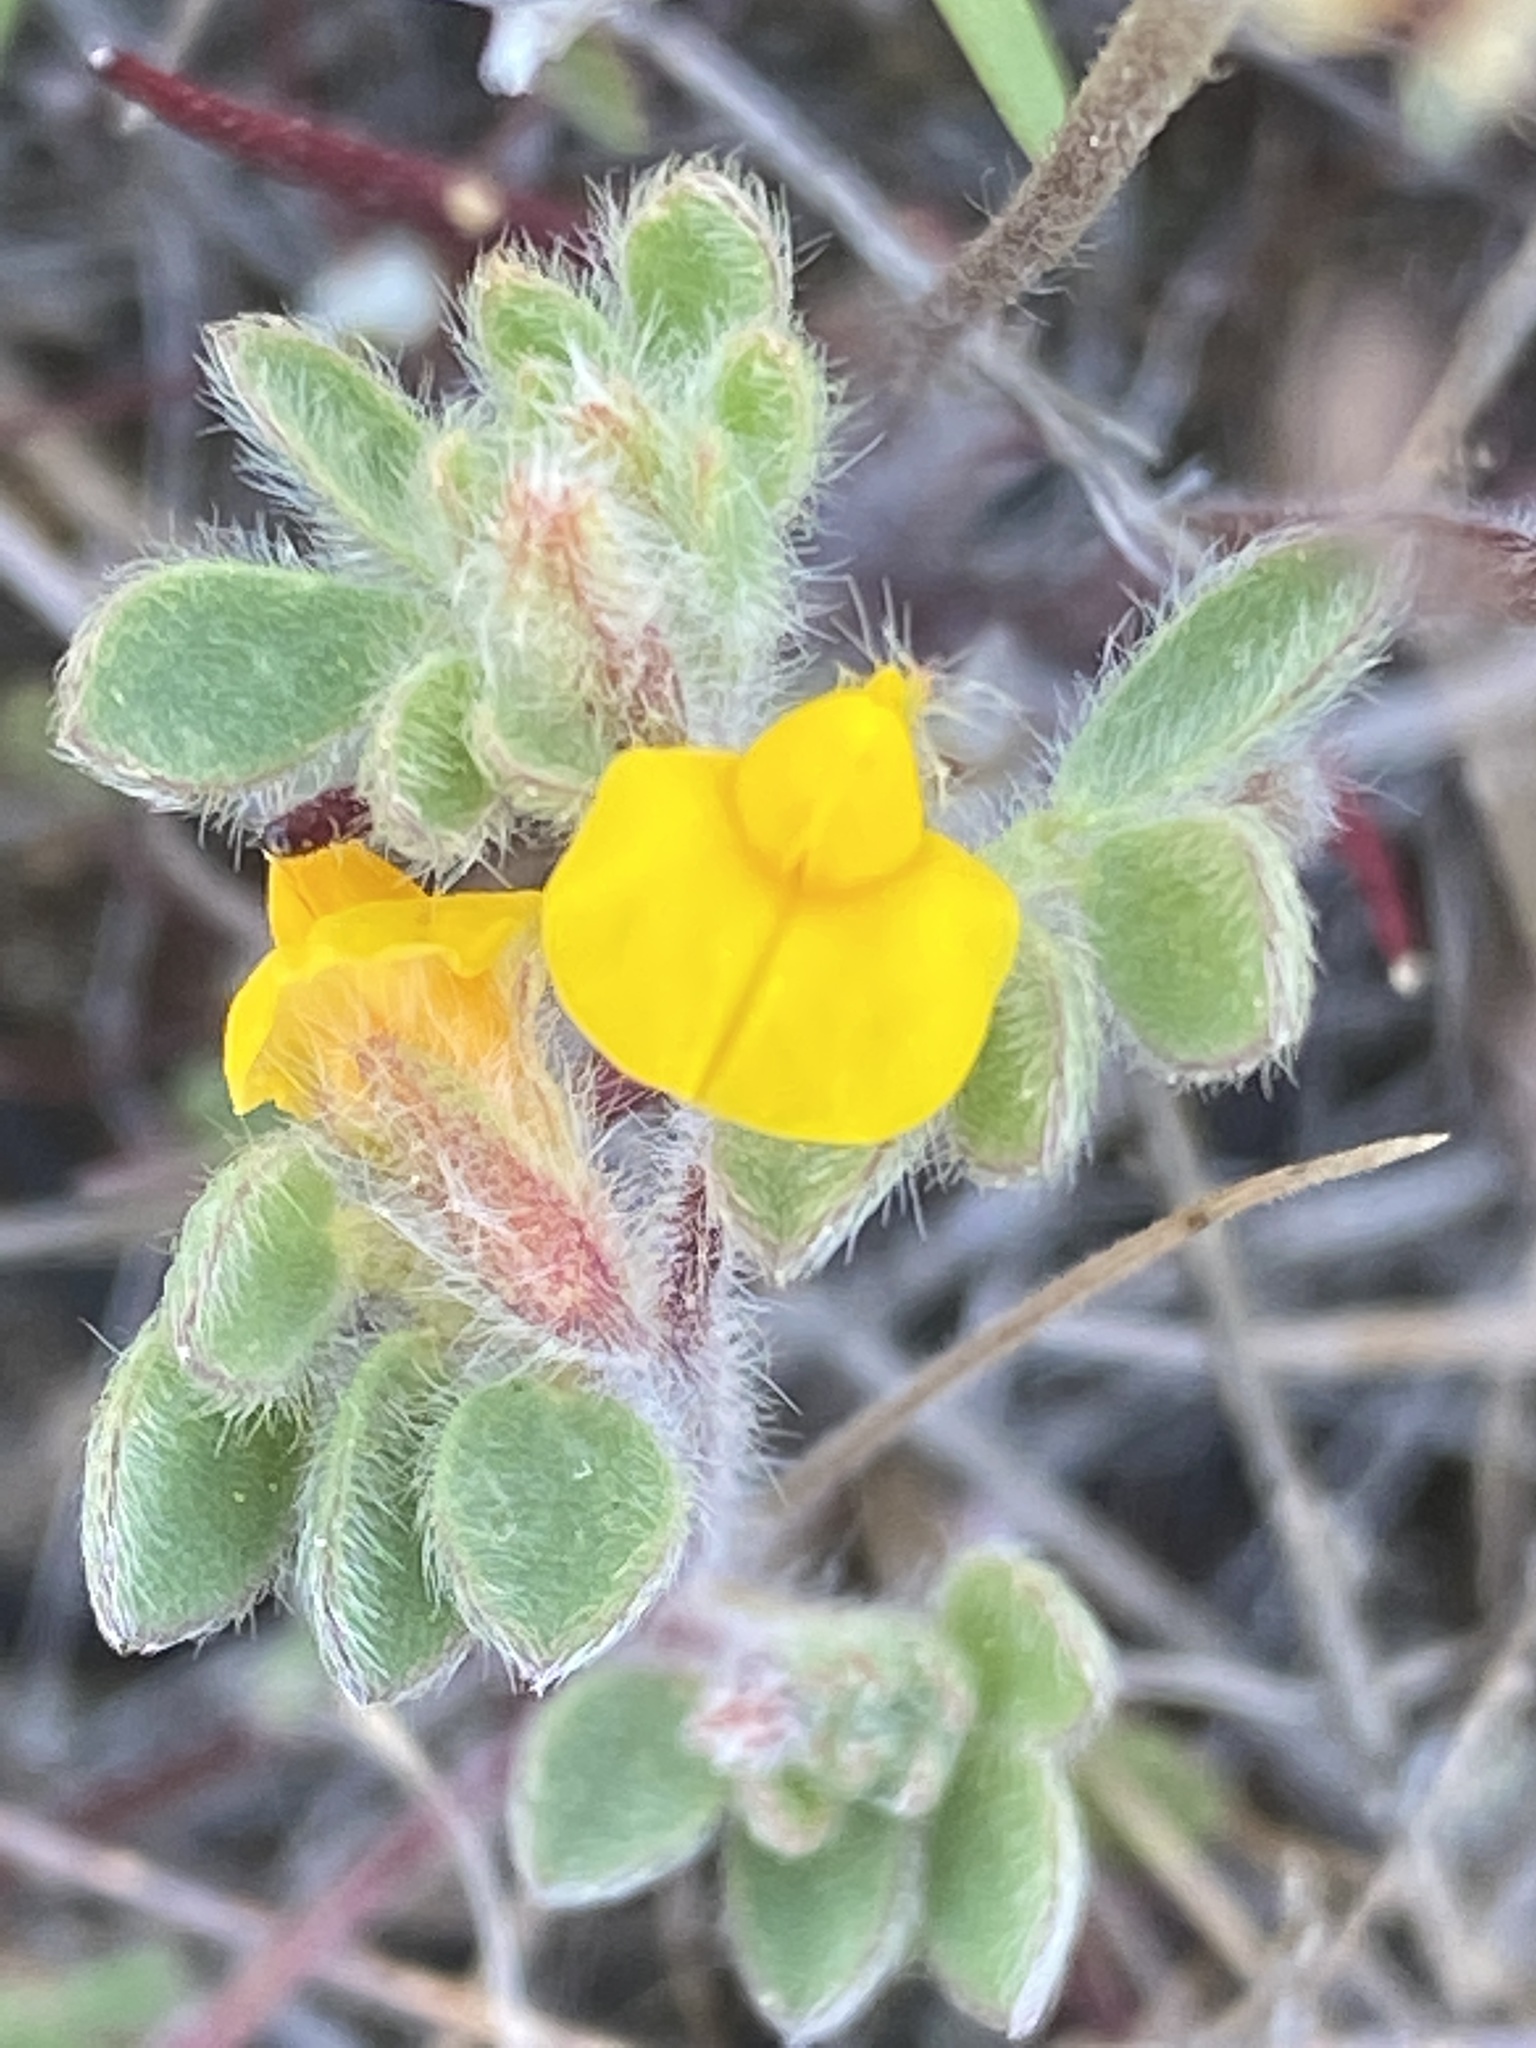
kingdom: Plantae
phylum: Tracheophyta
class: Magnoliopsida
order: Fabales
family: Fabaceae
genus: Acmispon
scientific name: Acmispon brachycarpus
